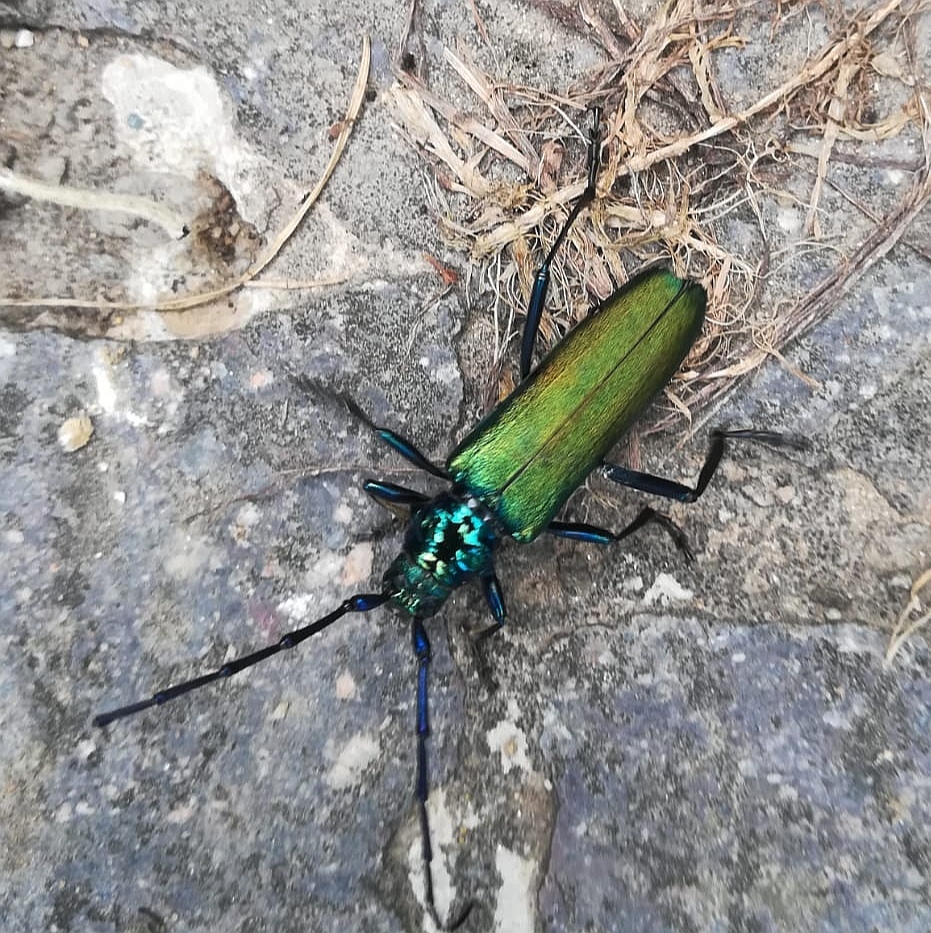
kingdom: Animalia
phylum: Arthropoda
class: Insecta
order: Coleoptera
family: Cerambycidae
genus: Aromia
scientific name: Aromia moschata
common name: Musk beetle
